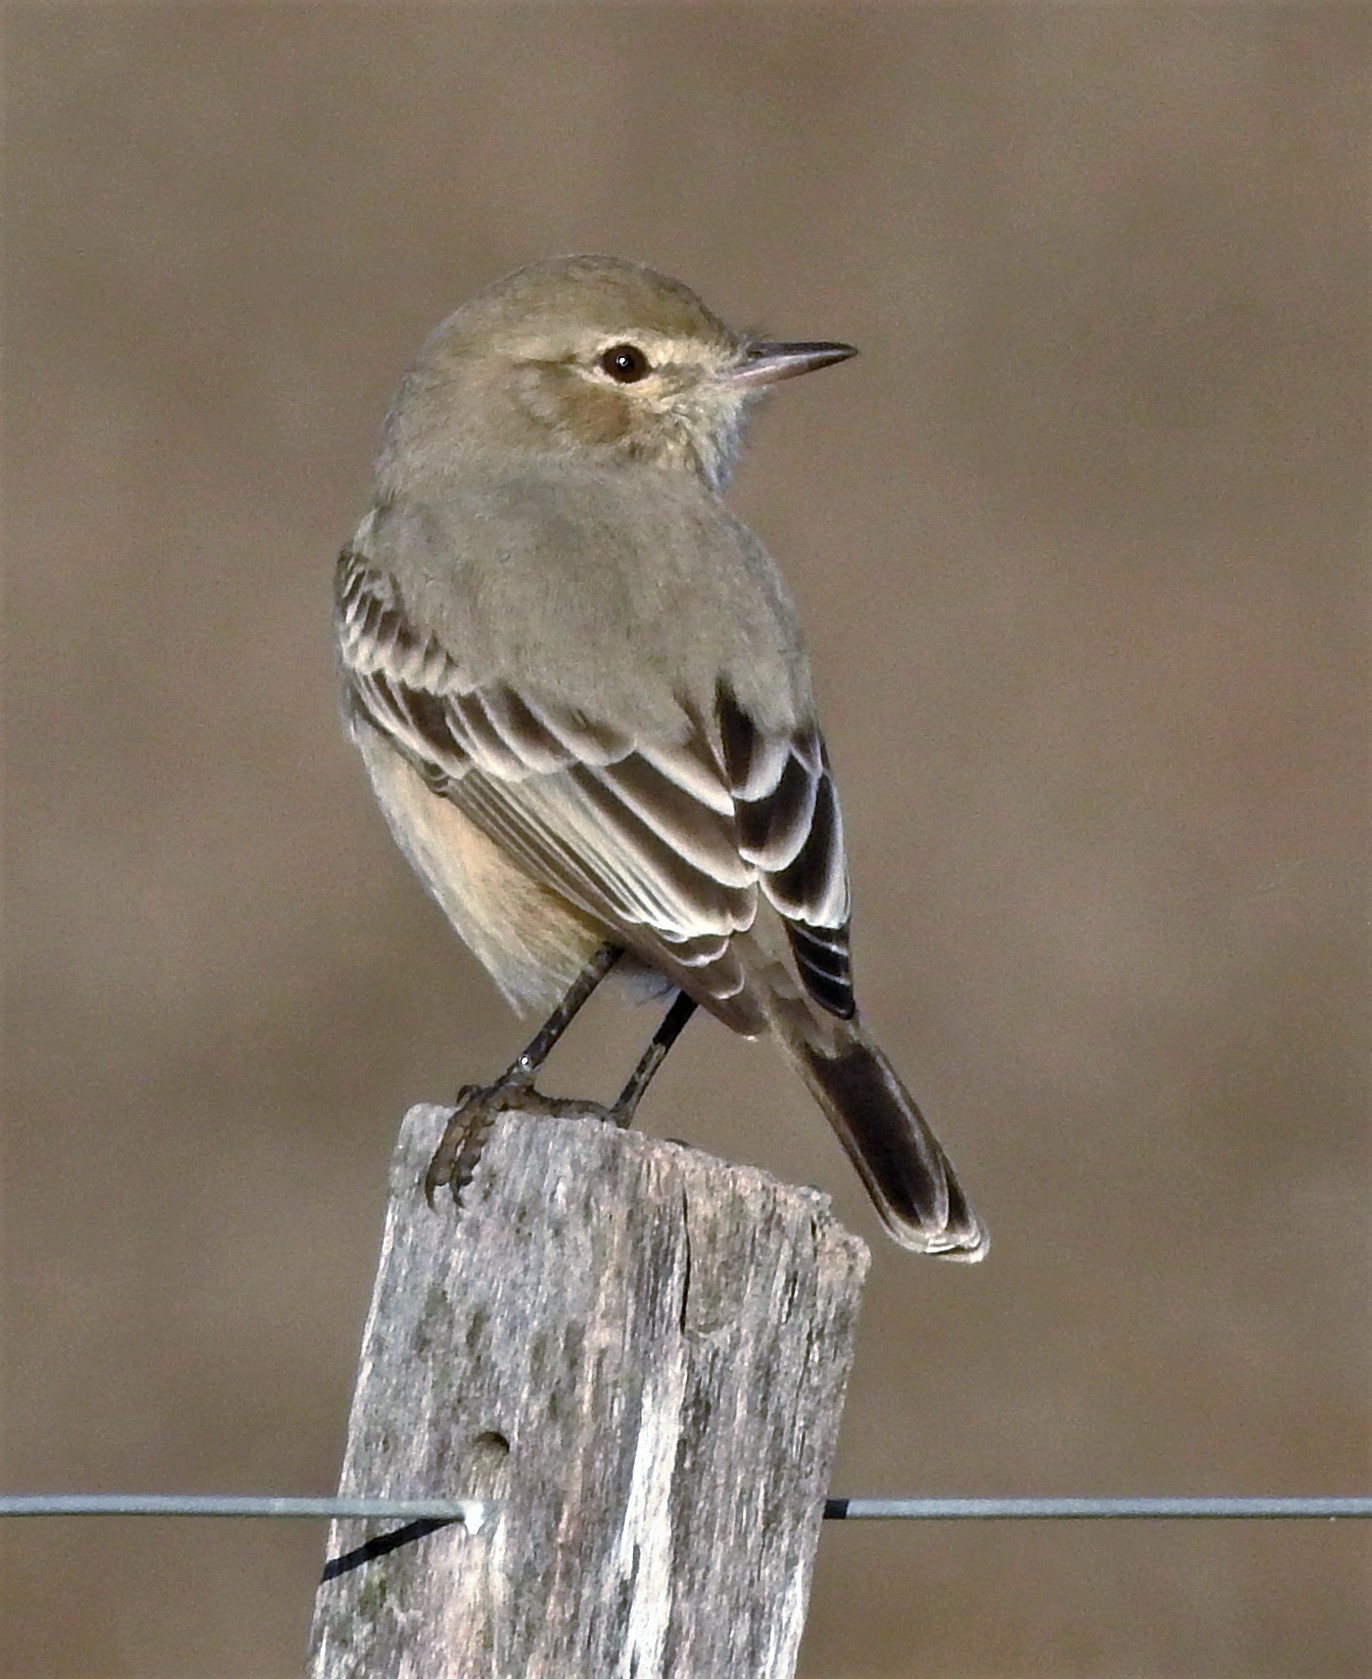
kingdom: Animalia
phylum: Chordata
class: Aves
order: Passeriformes
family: Tyrannidae
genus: Agriornis
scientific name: Agriornis murinus
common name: Lesser shrike-tyrant
